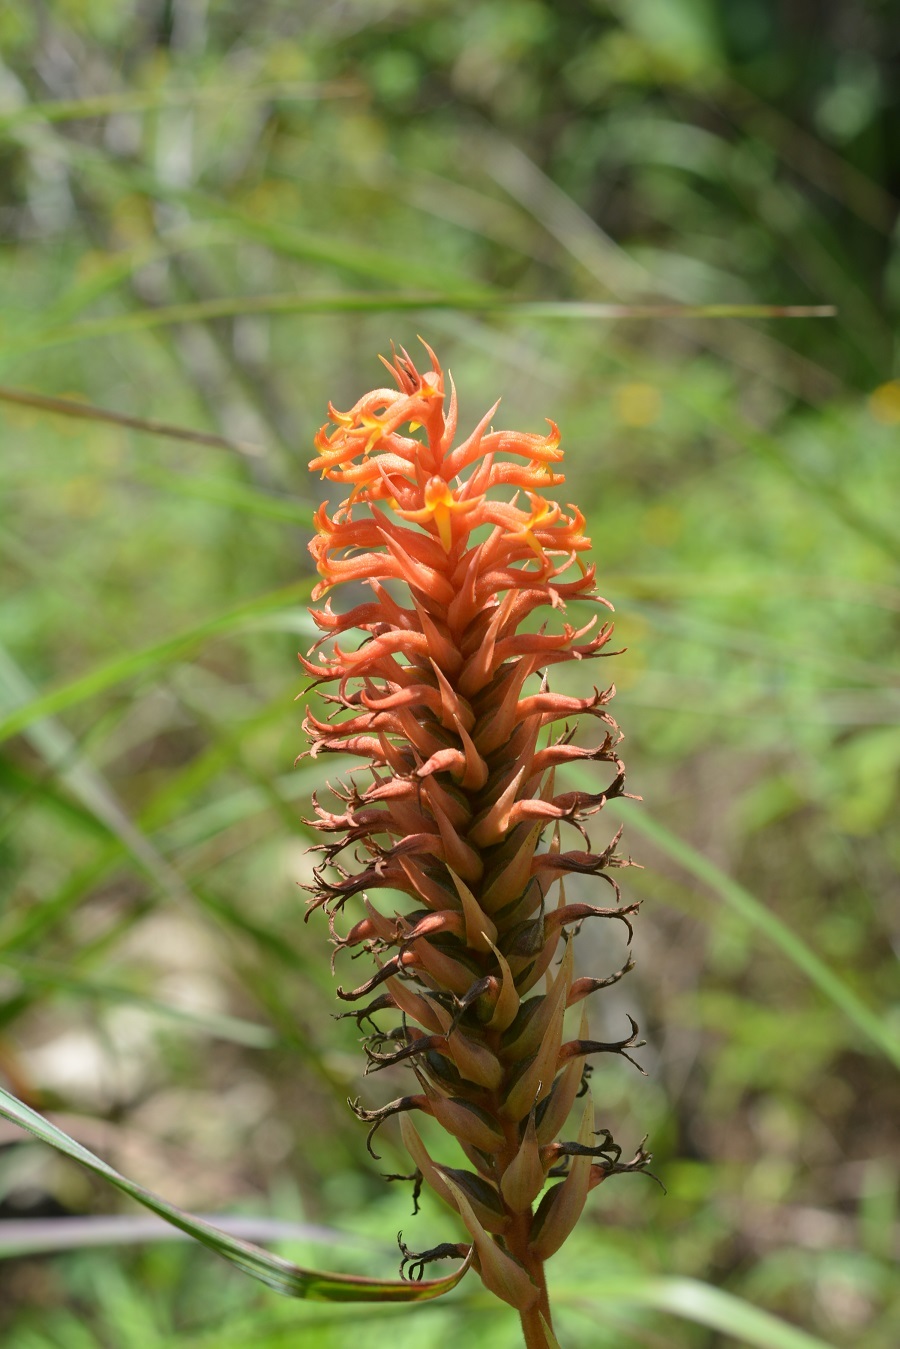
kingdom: Plantae
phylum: Tracheophyta
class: Liliopsida
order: Asparagales
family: Orchidaceae
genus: Dichromanthus
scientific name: Dichromanthus cinnabarinus
